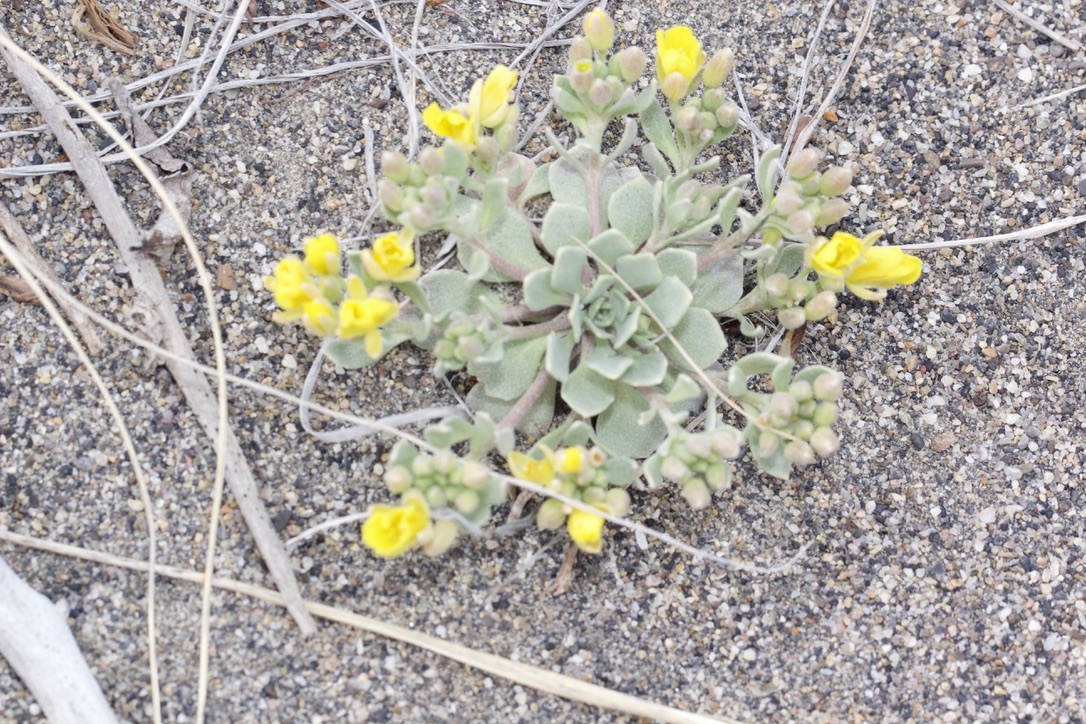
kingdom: Plantae
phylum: Tracheophyta
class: Magnoliopsida
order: Brassicales
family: Brassicaceae
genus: Physaria
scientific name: Physaria didymocarpa
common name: Common twinpod
